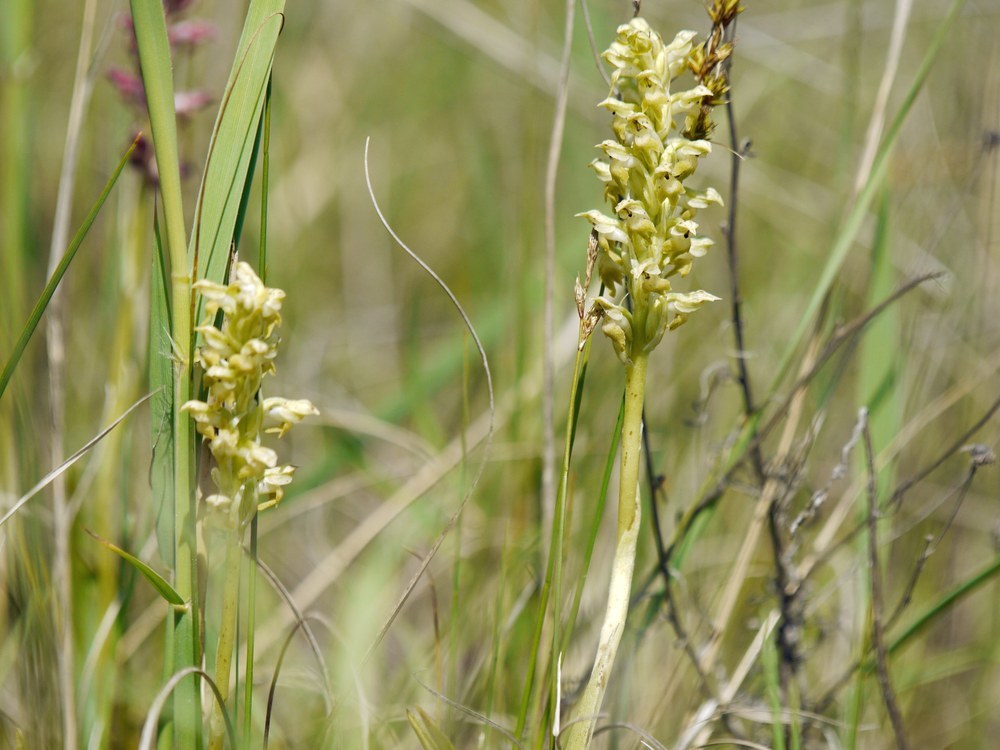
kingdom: Plantae
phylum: Tracheophyta
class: Liliopsida
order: Asparagales
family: Orchidaceae
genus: Anacamptis
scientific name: Anacamptis coriophora
